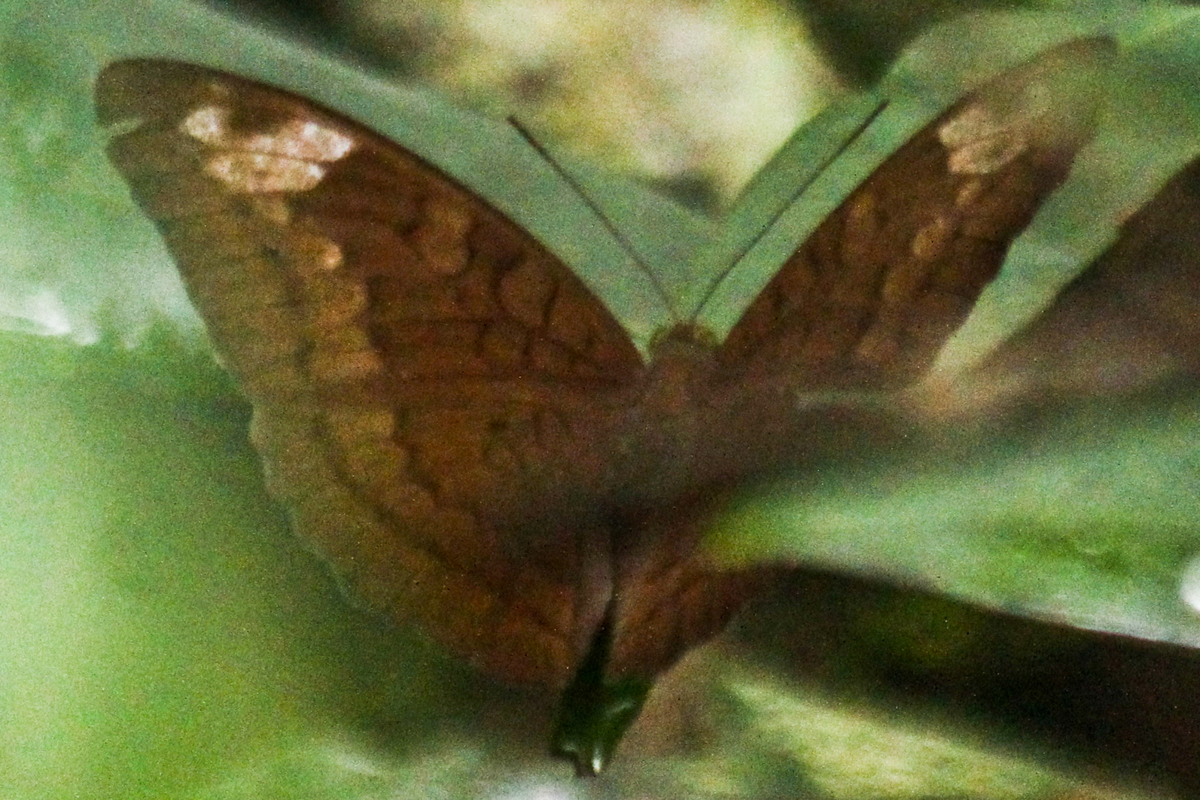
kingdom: Animalia
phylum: Arthropoda
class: Insecta
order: Lepidoptera
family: Nymphalidae
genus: Tanaecia
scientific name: Tanaecia julii
